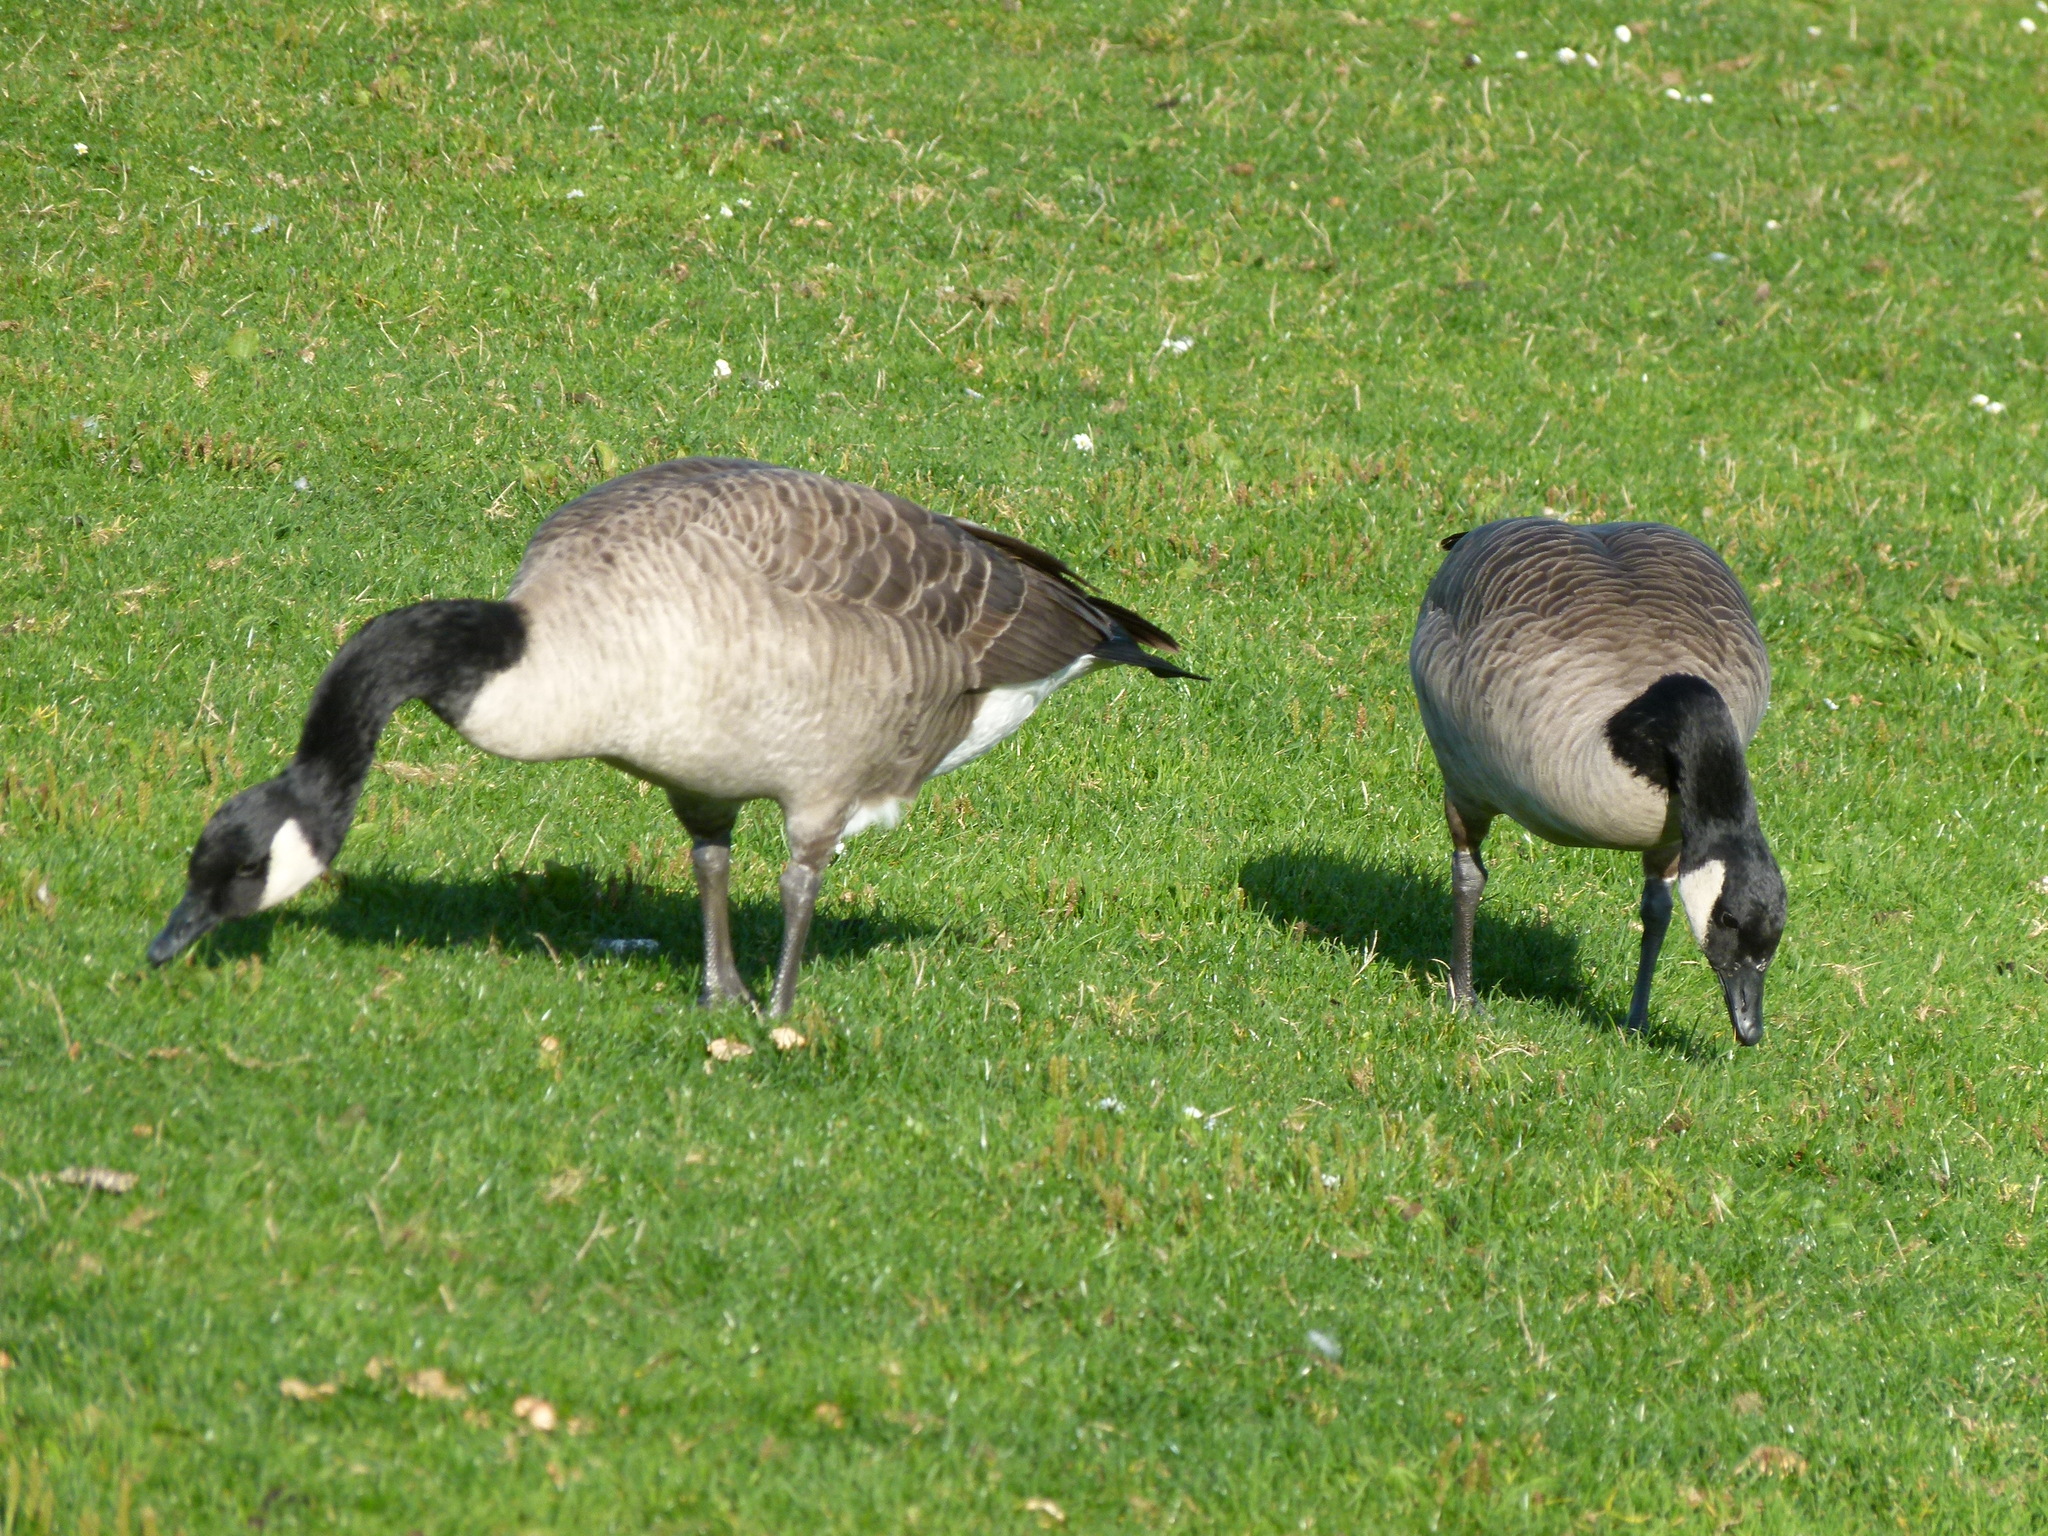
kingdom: Animalia
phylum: Chordata
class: Aves
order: Anseriformes
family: Anatidae
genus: Branta
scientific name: Branta canadensis
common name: Canada goose
